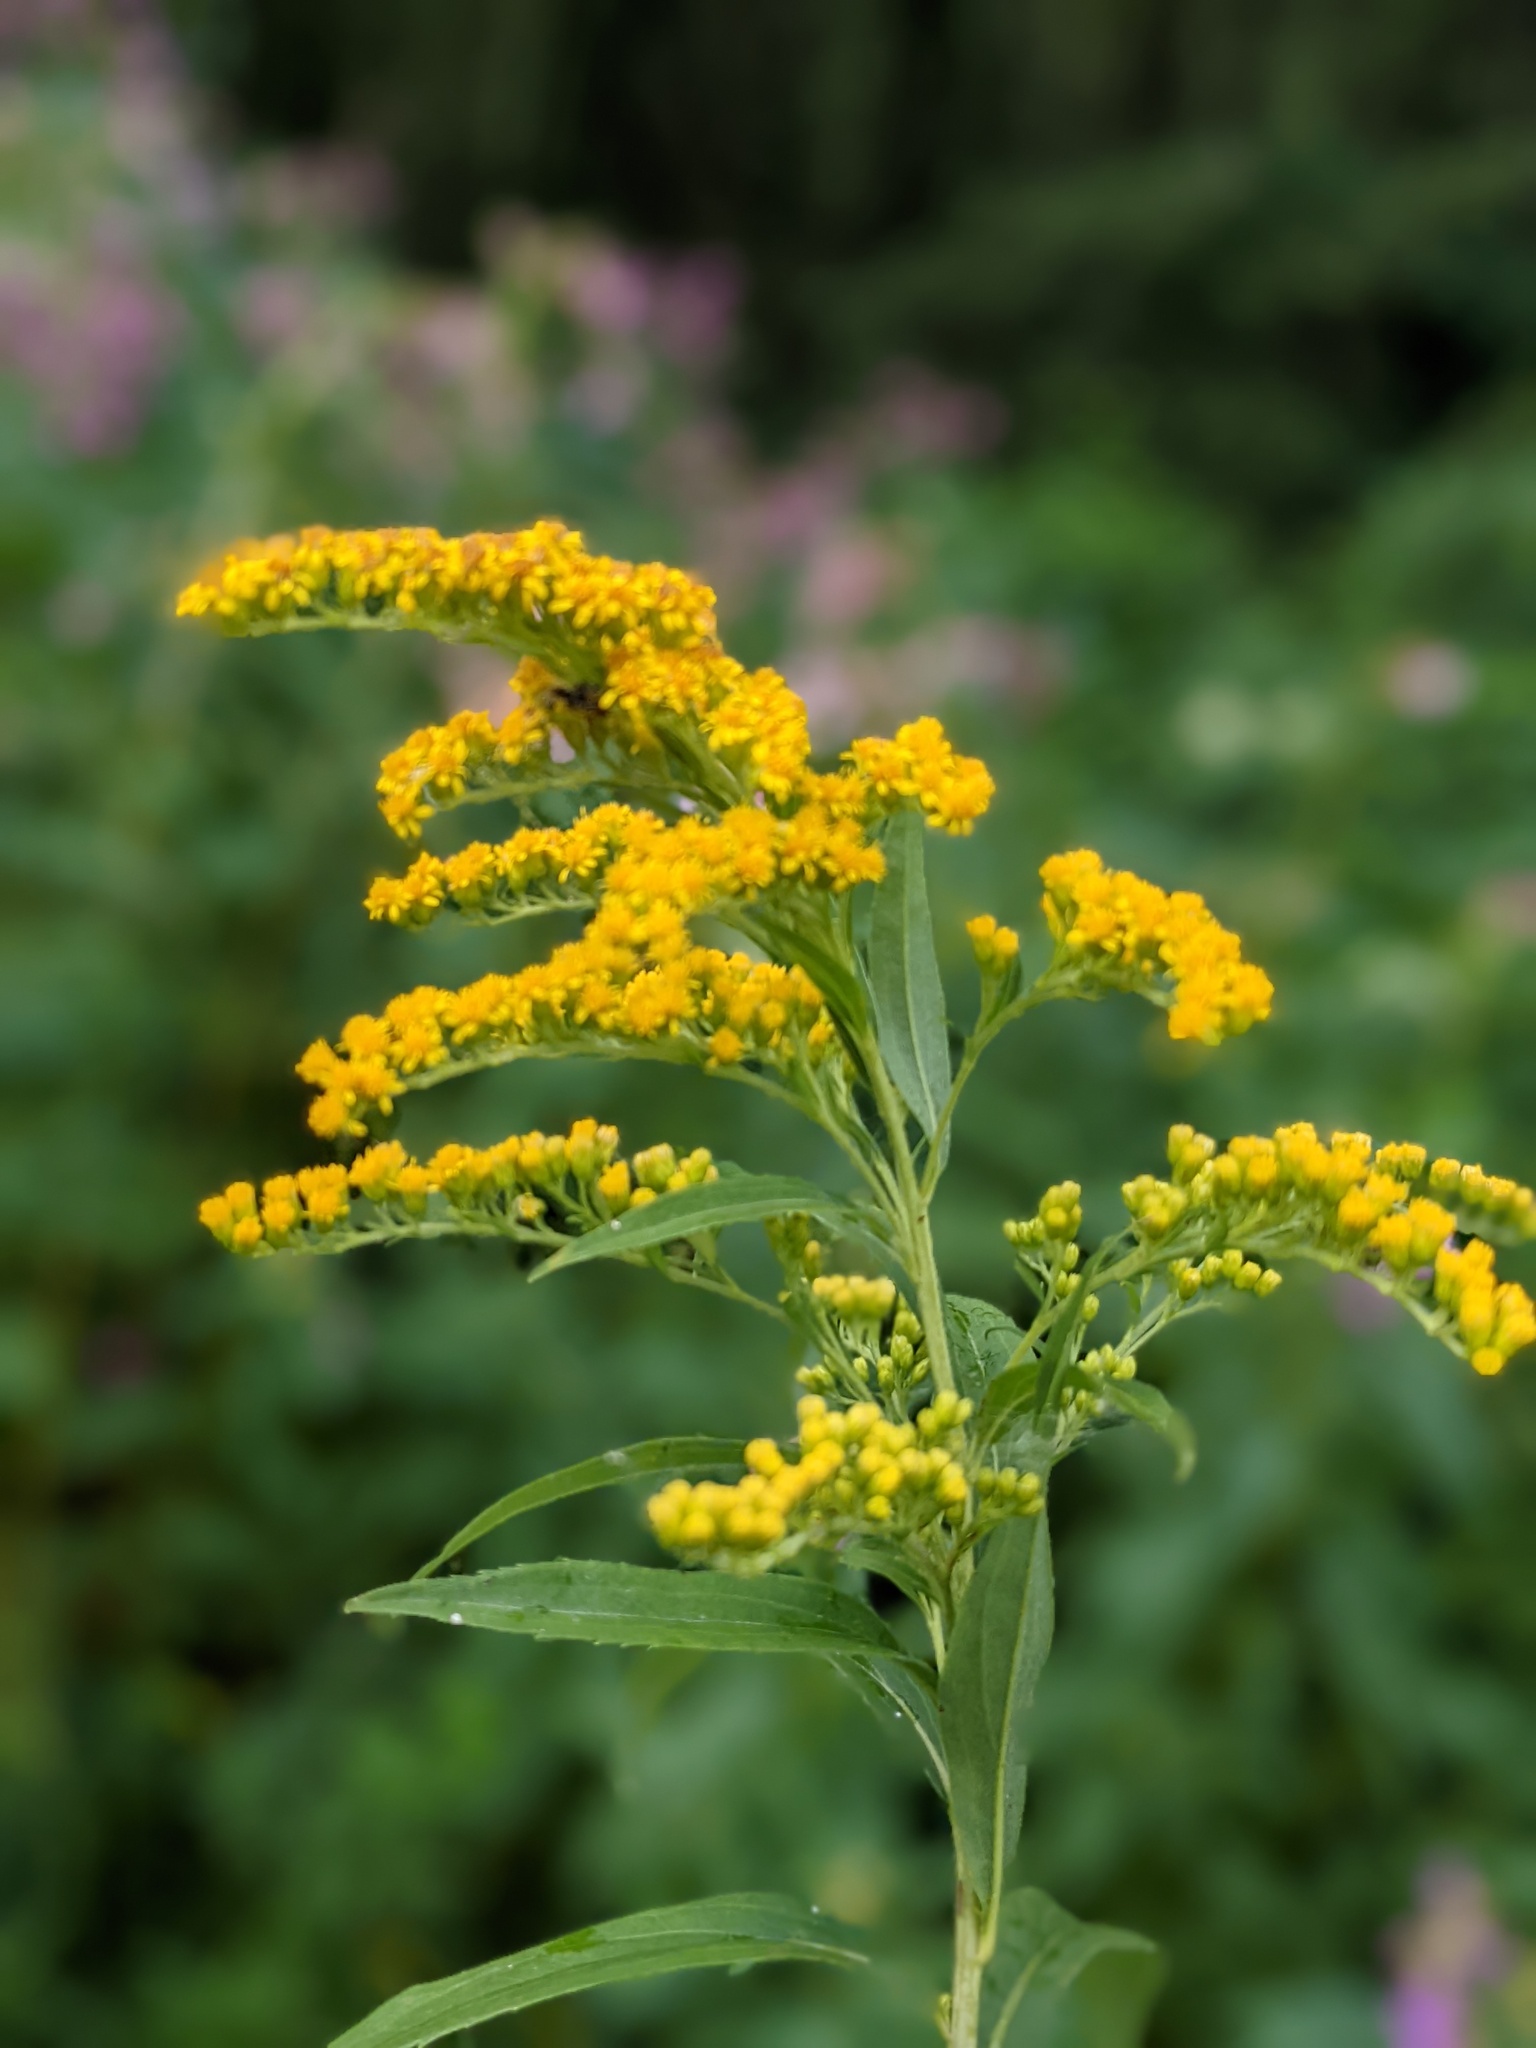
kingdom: Plantae
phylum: Tracheophyta
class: Magnoliopsida
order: Asterales
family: Asteraceae
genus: Solidago
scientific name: Solidago gigantea
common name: Giant goldenrod
